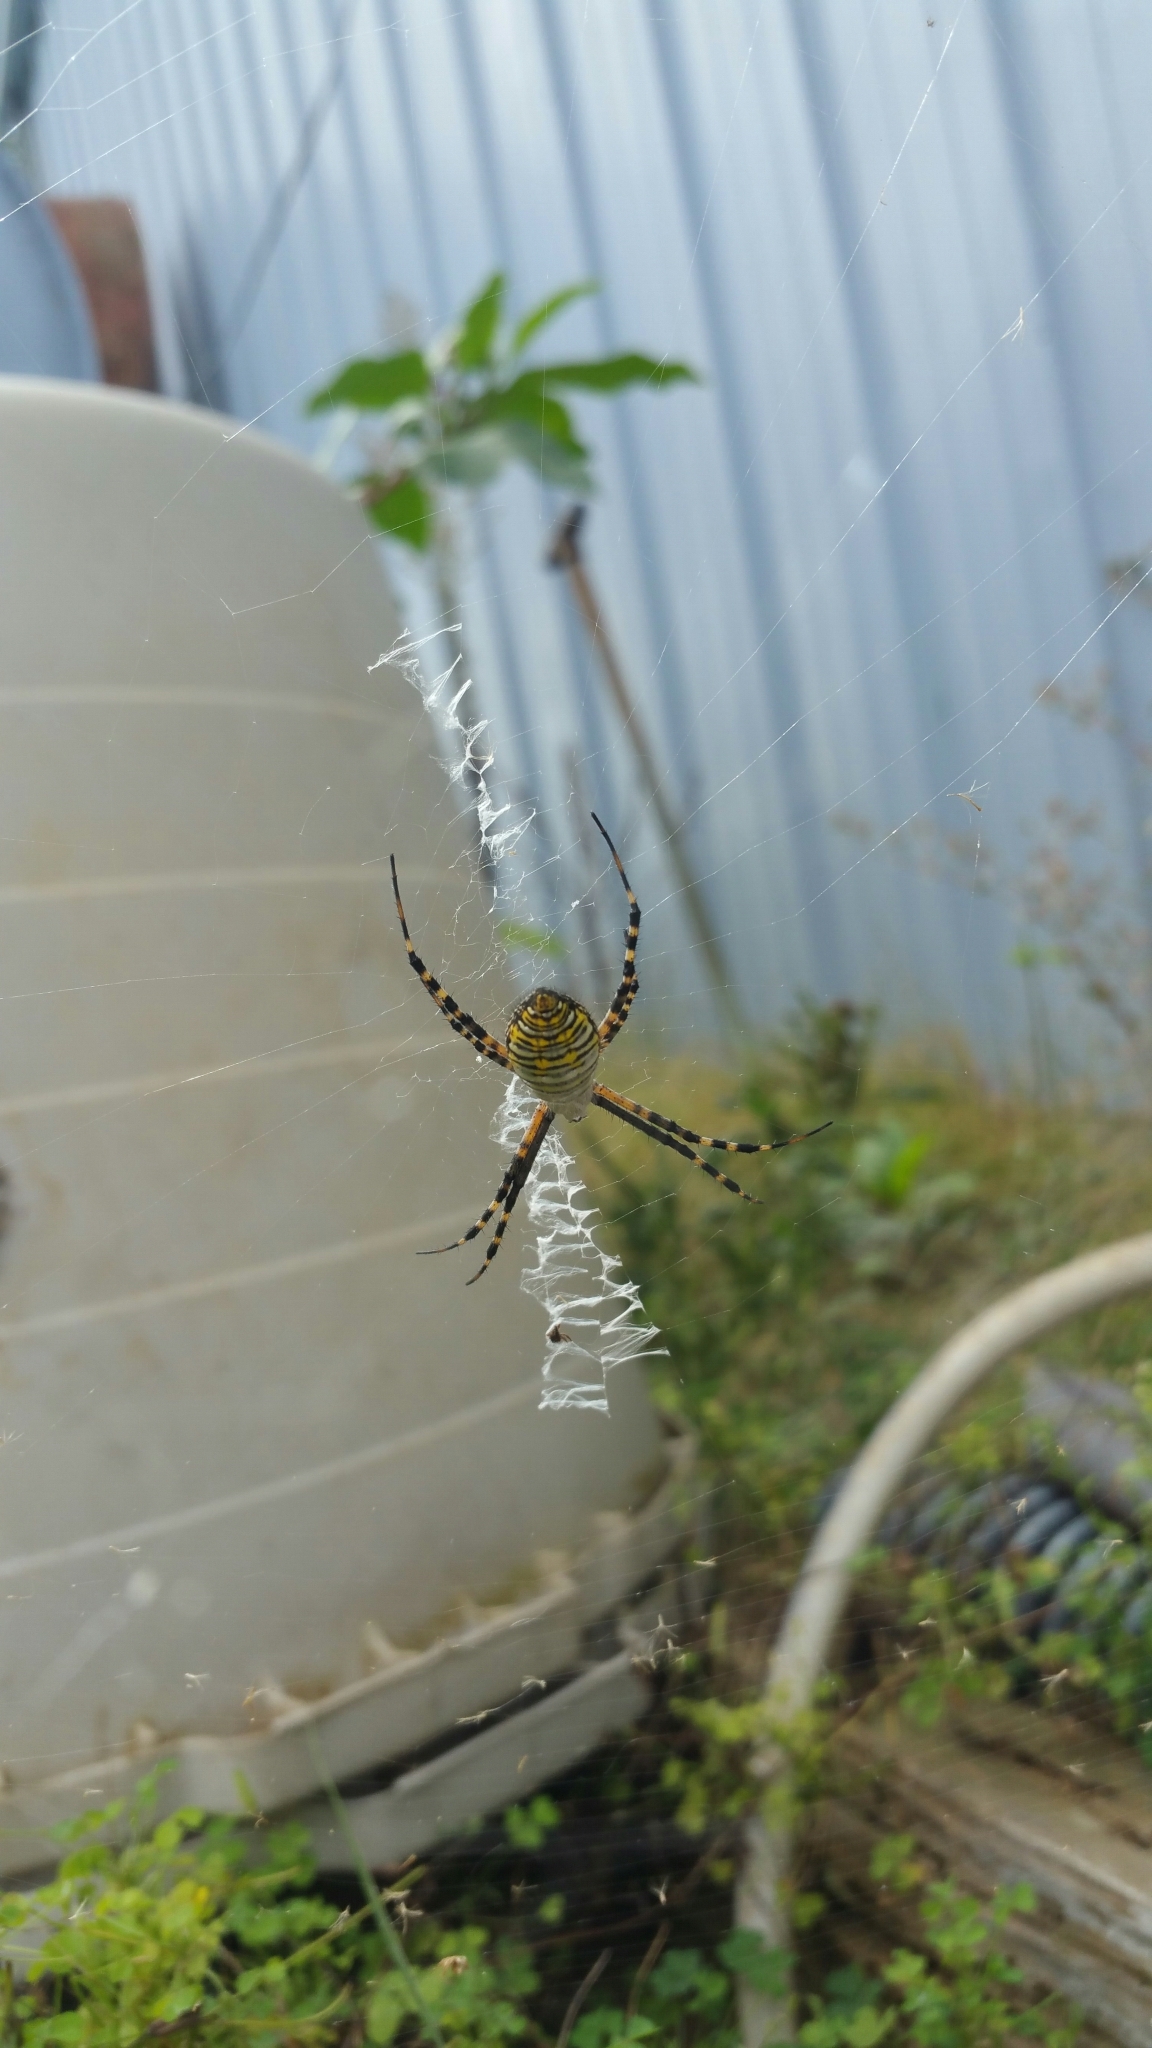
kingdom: Animalia
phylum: Arthropoda
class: Arachnida
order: Araneae
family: Araneidae
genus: Argiope
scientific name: Argiope trifasciata
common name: Banded garden spider
